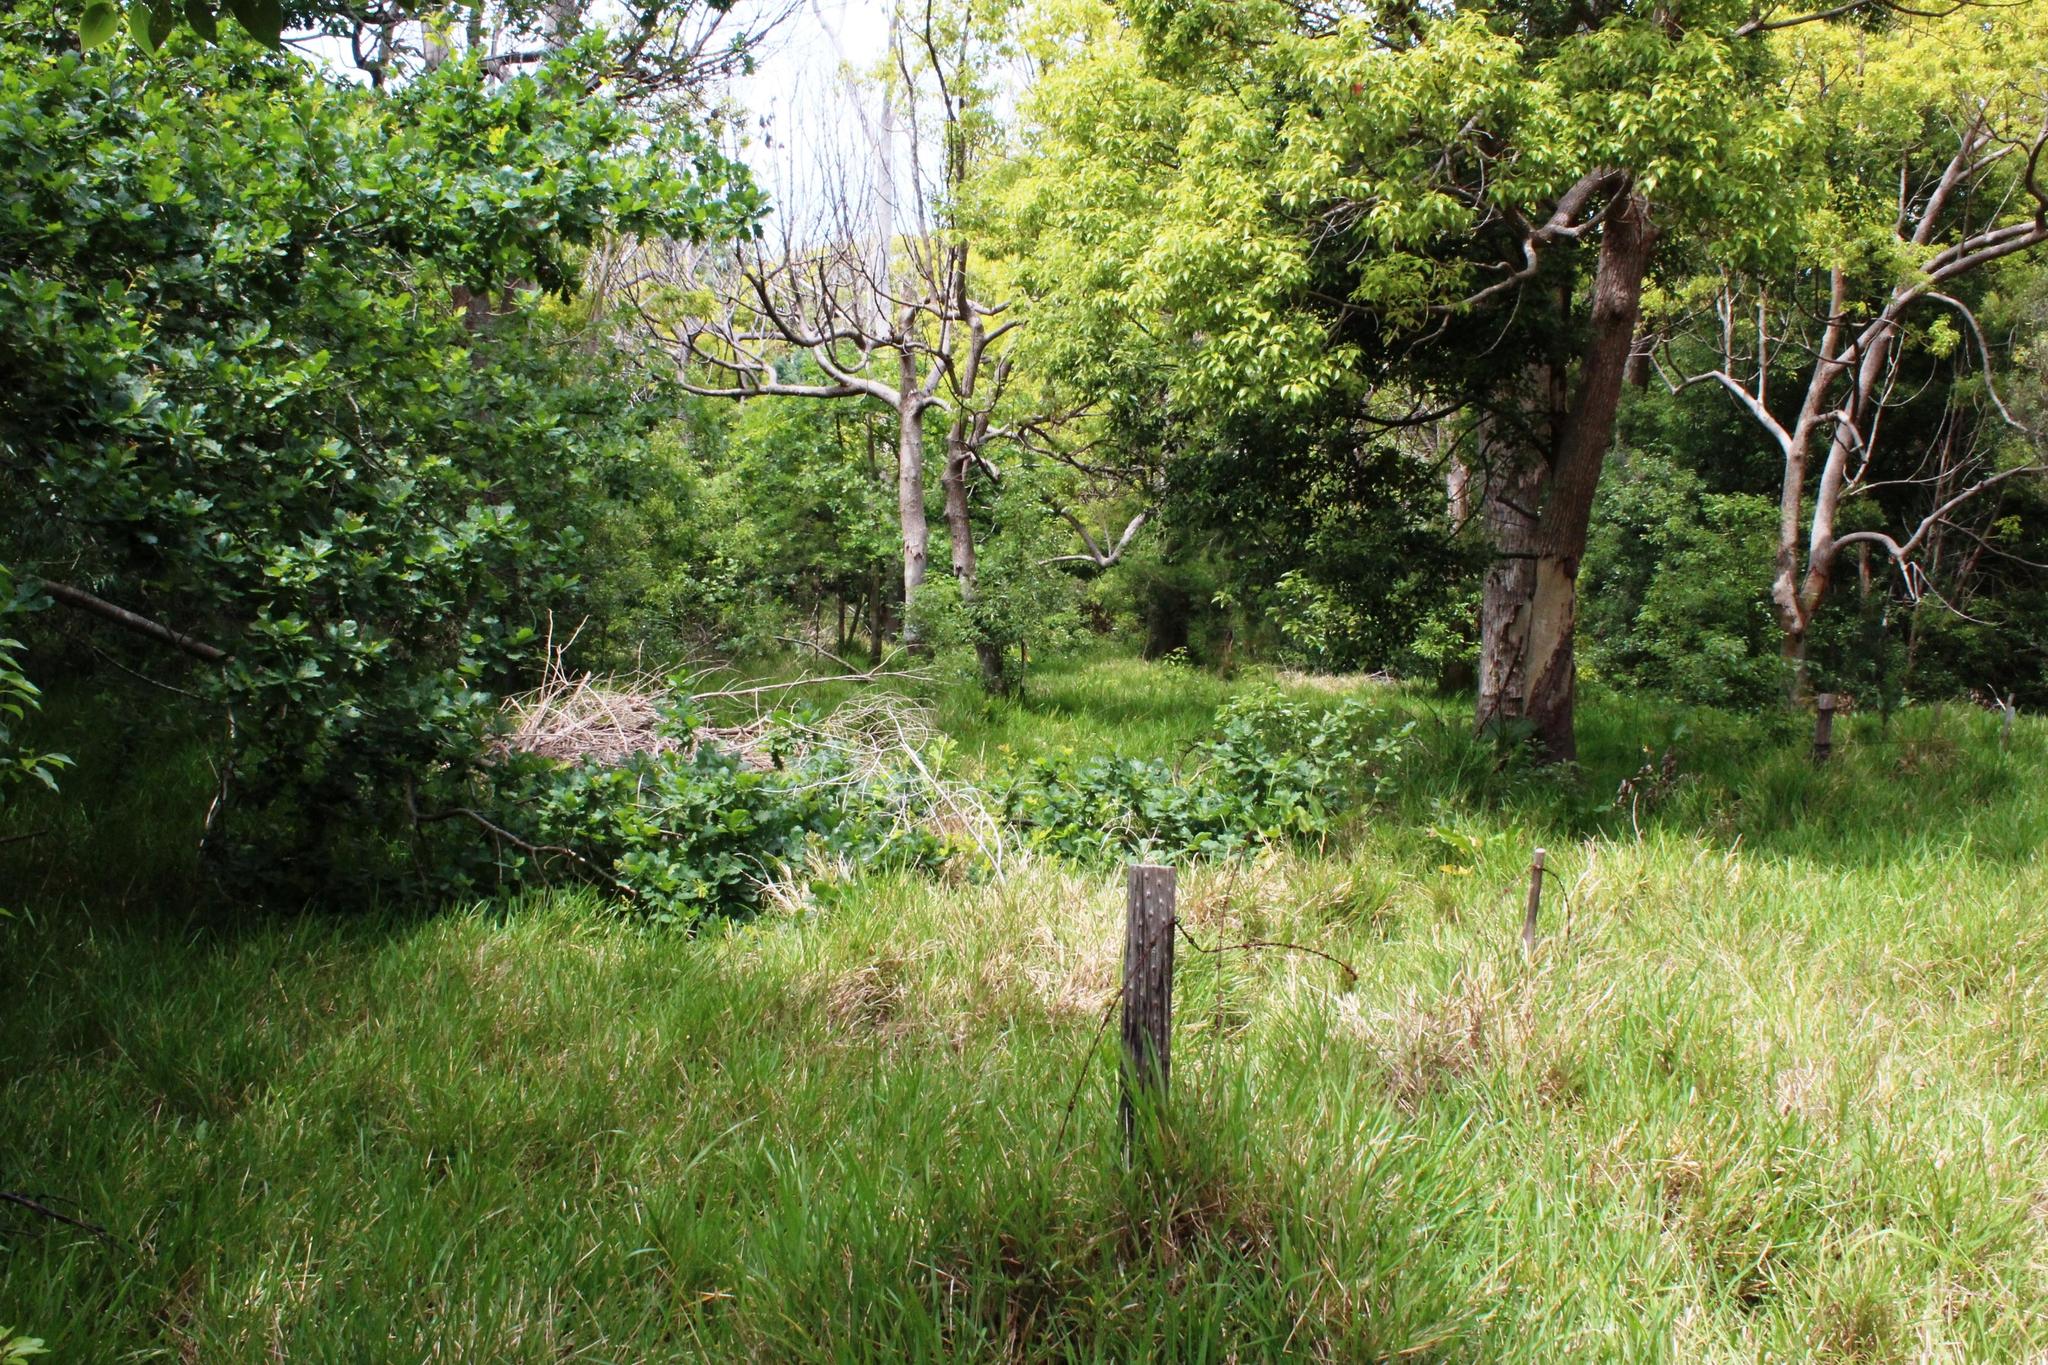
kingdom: Plantae
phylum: Tracheophyta
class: Magnoliopsida
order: Laurales
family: Lauraceae
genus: Cinnamomum
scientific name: Cinnamomum camphora
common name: Camphortree
